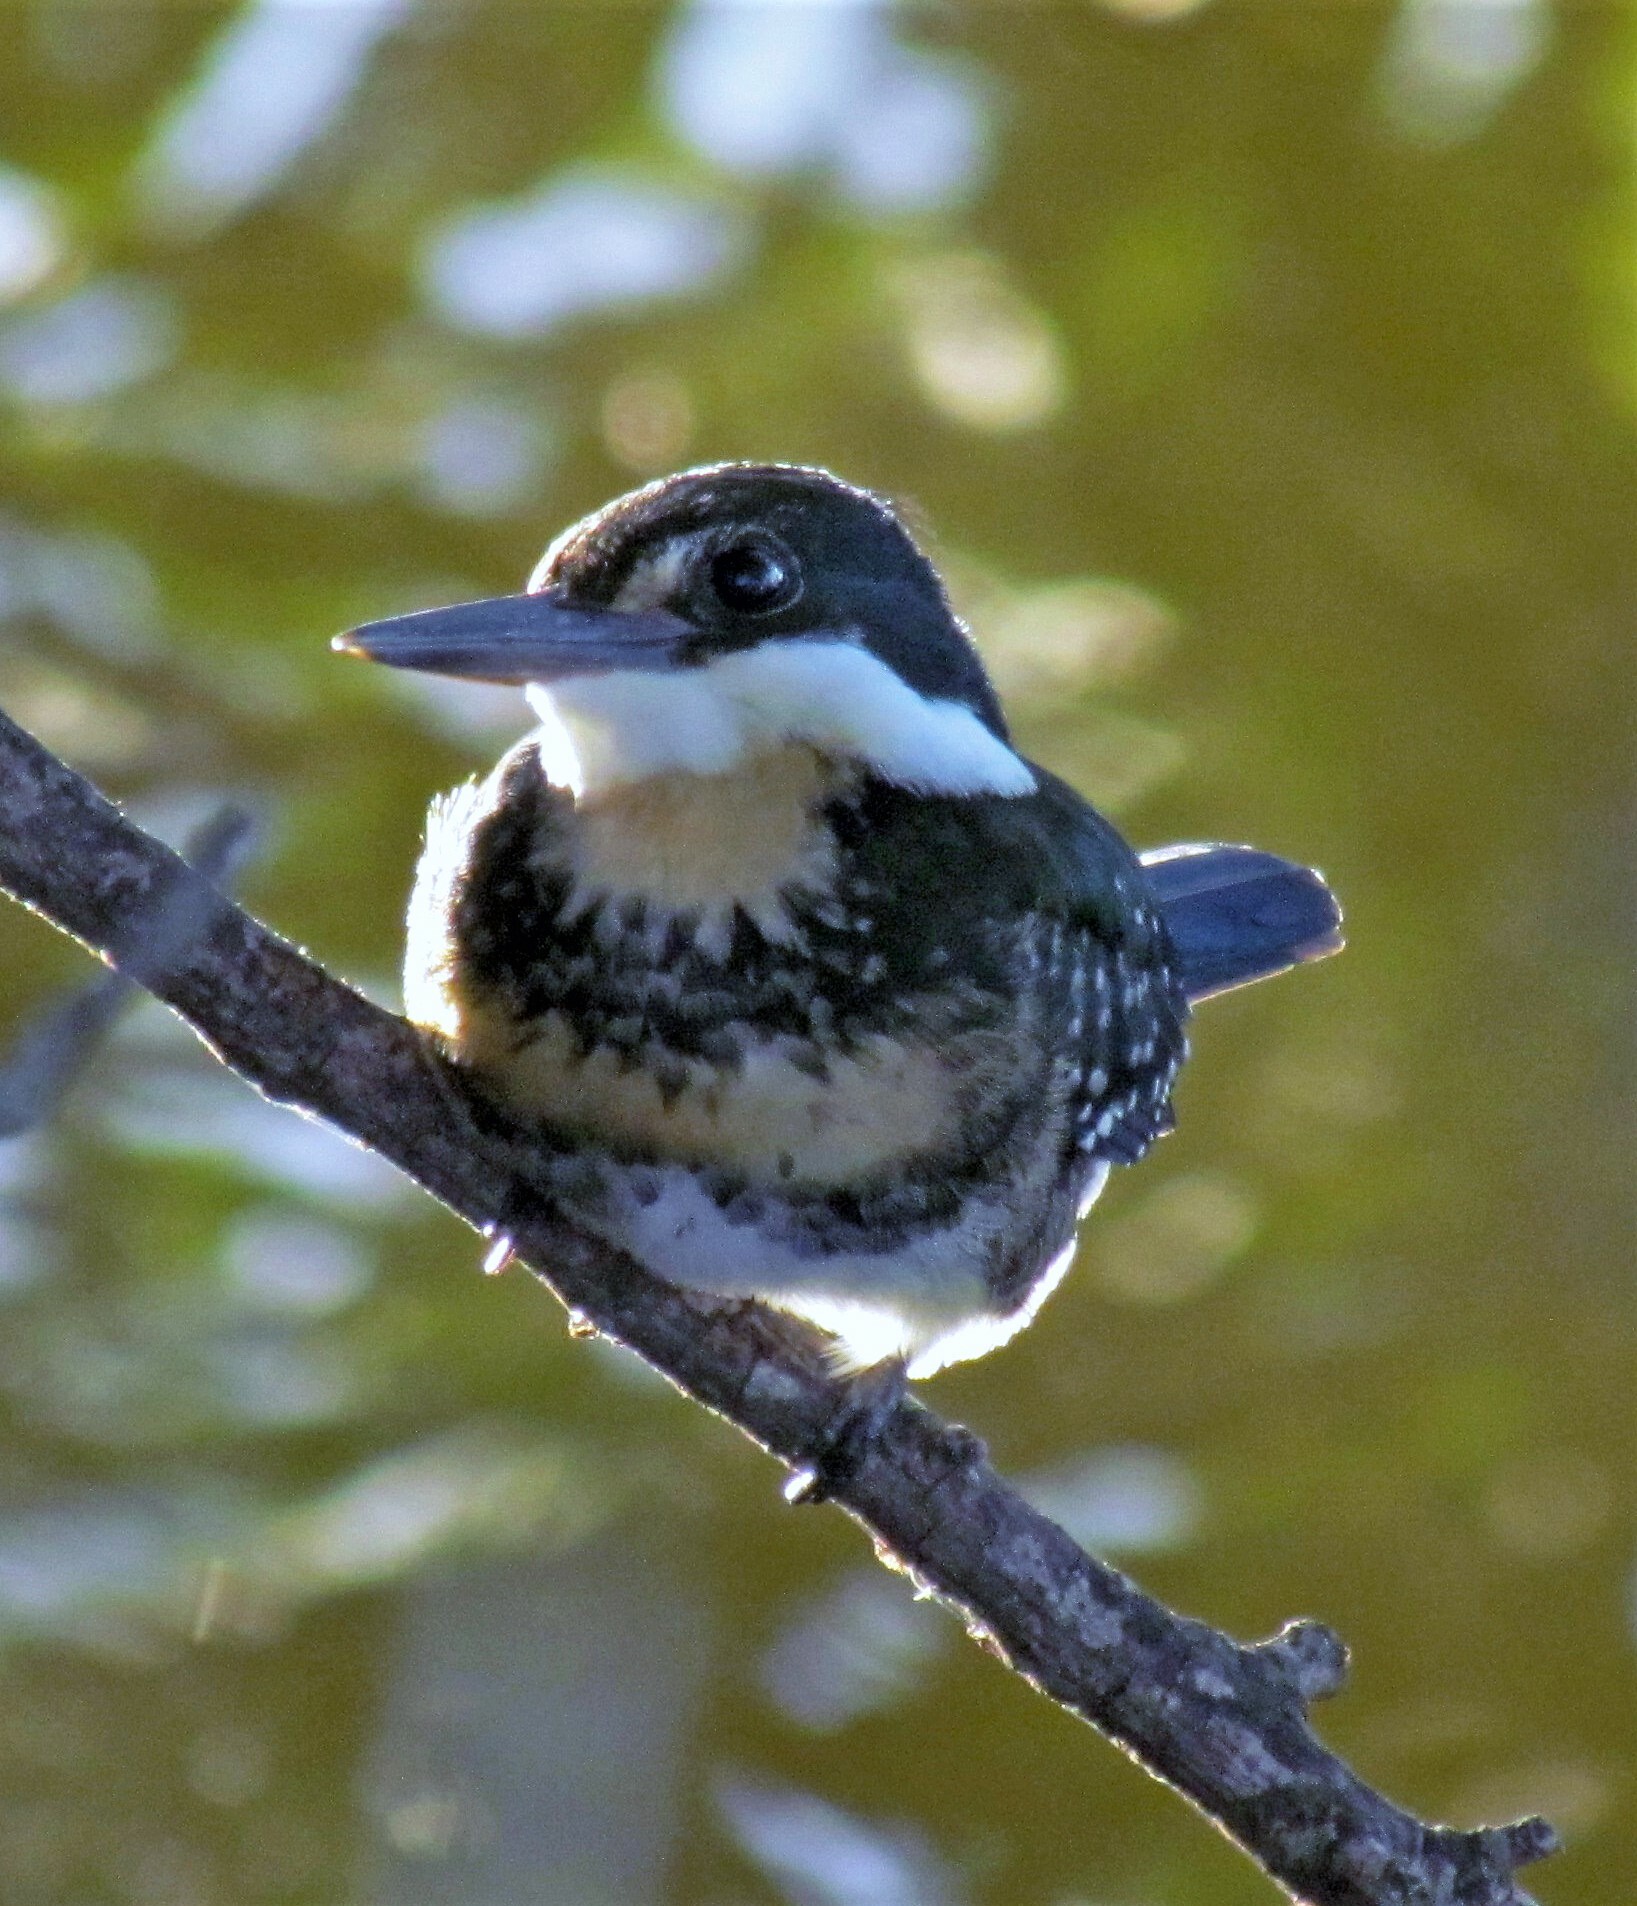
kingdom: Animalia
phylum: Chordata
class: Aves
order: Coraciiformes
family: Alcedinidae
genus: Chloroceryle
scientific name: Chloroceryle americana
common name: Green kingfisher
